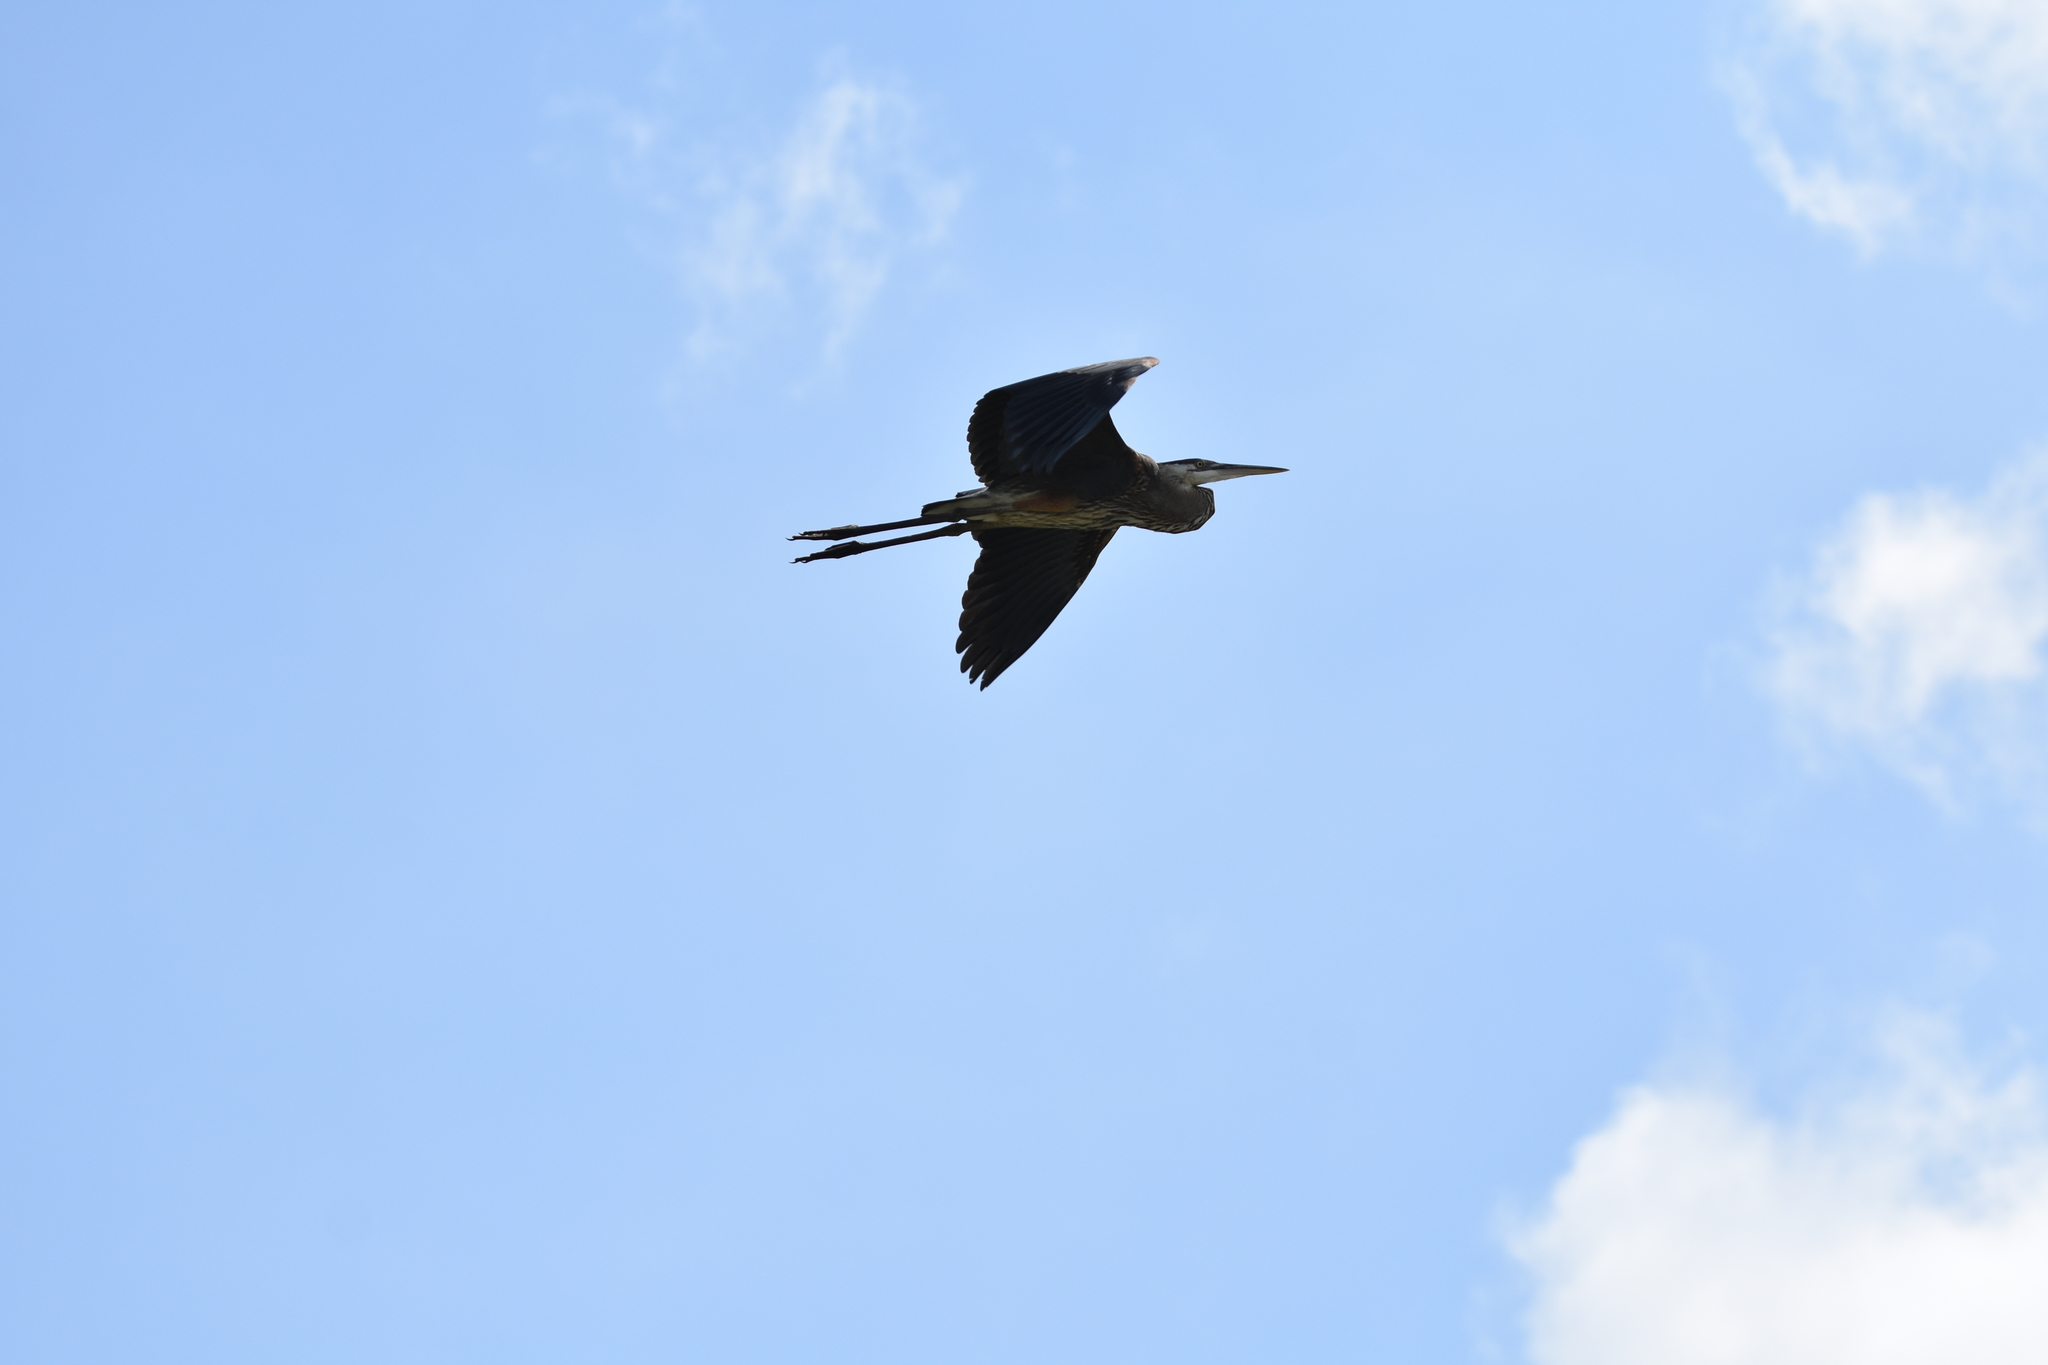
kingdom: Animalia
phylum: Chordata
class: Aves
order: Pelecaniformes
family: Ardeidae
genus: Ardea
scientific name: Ardea herodias
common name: Great blue heron
